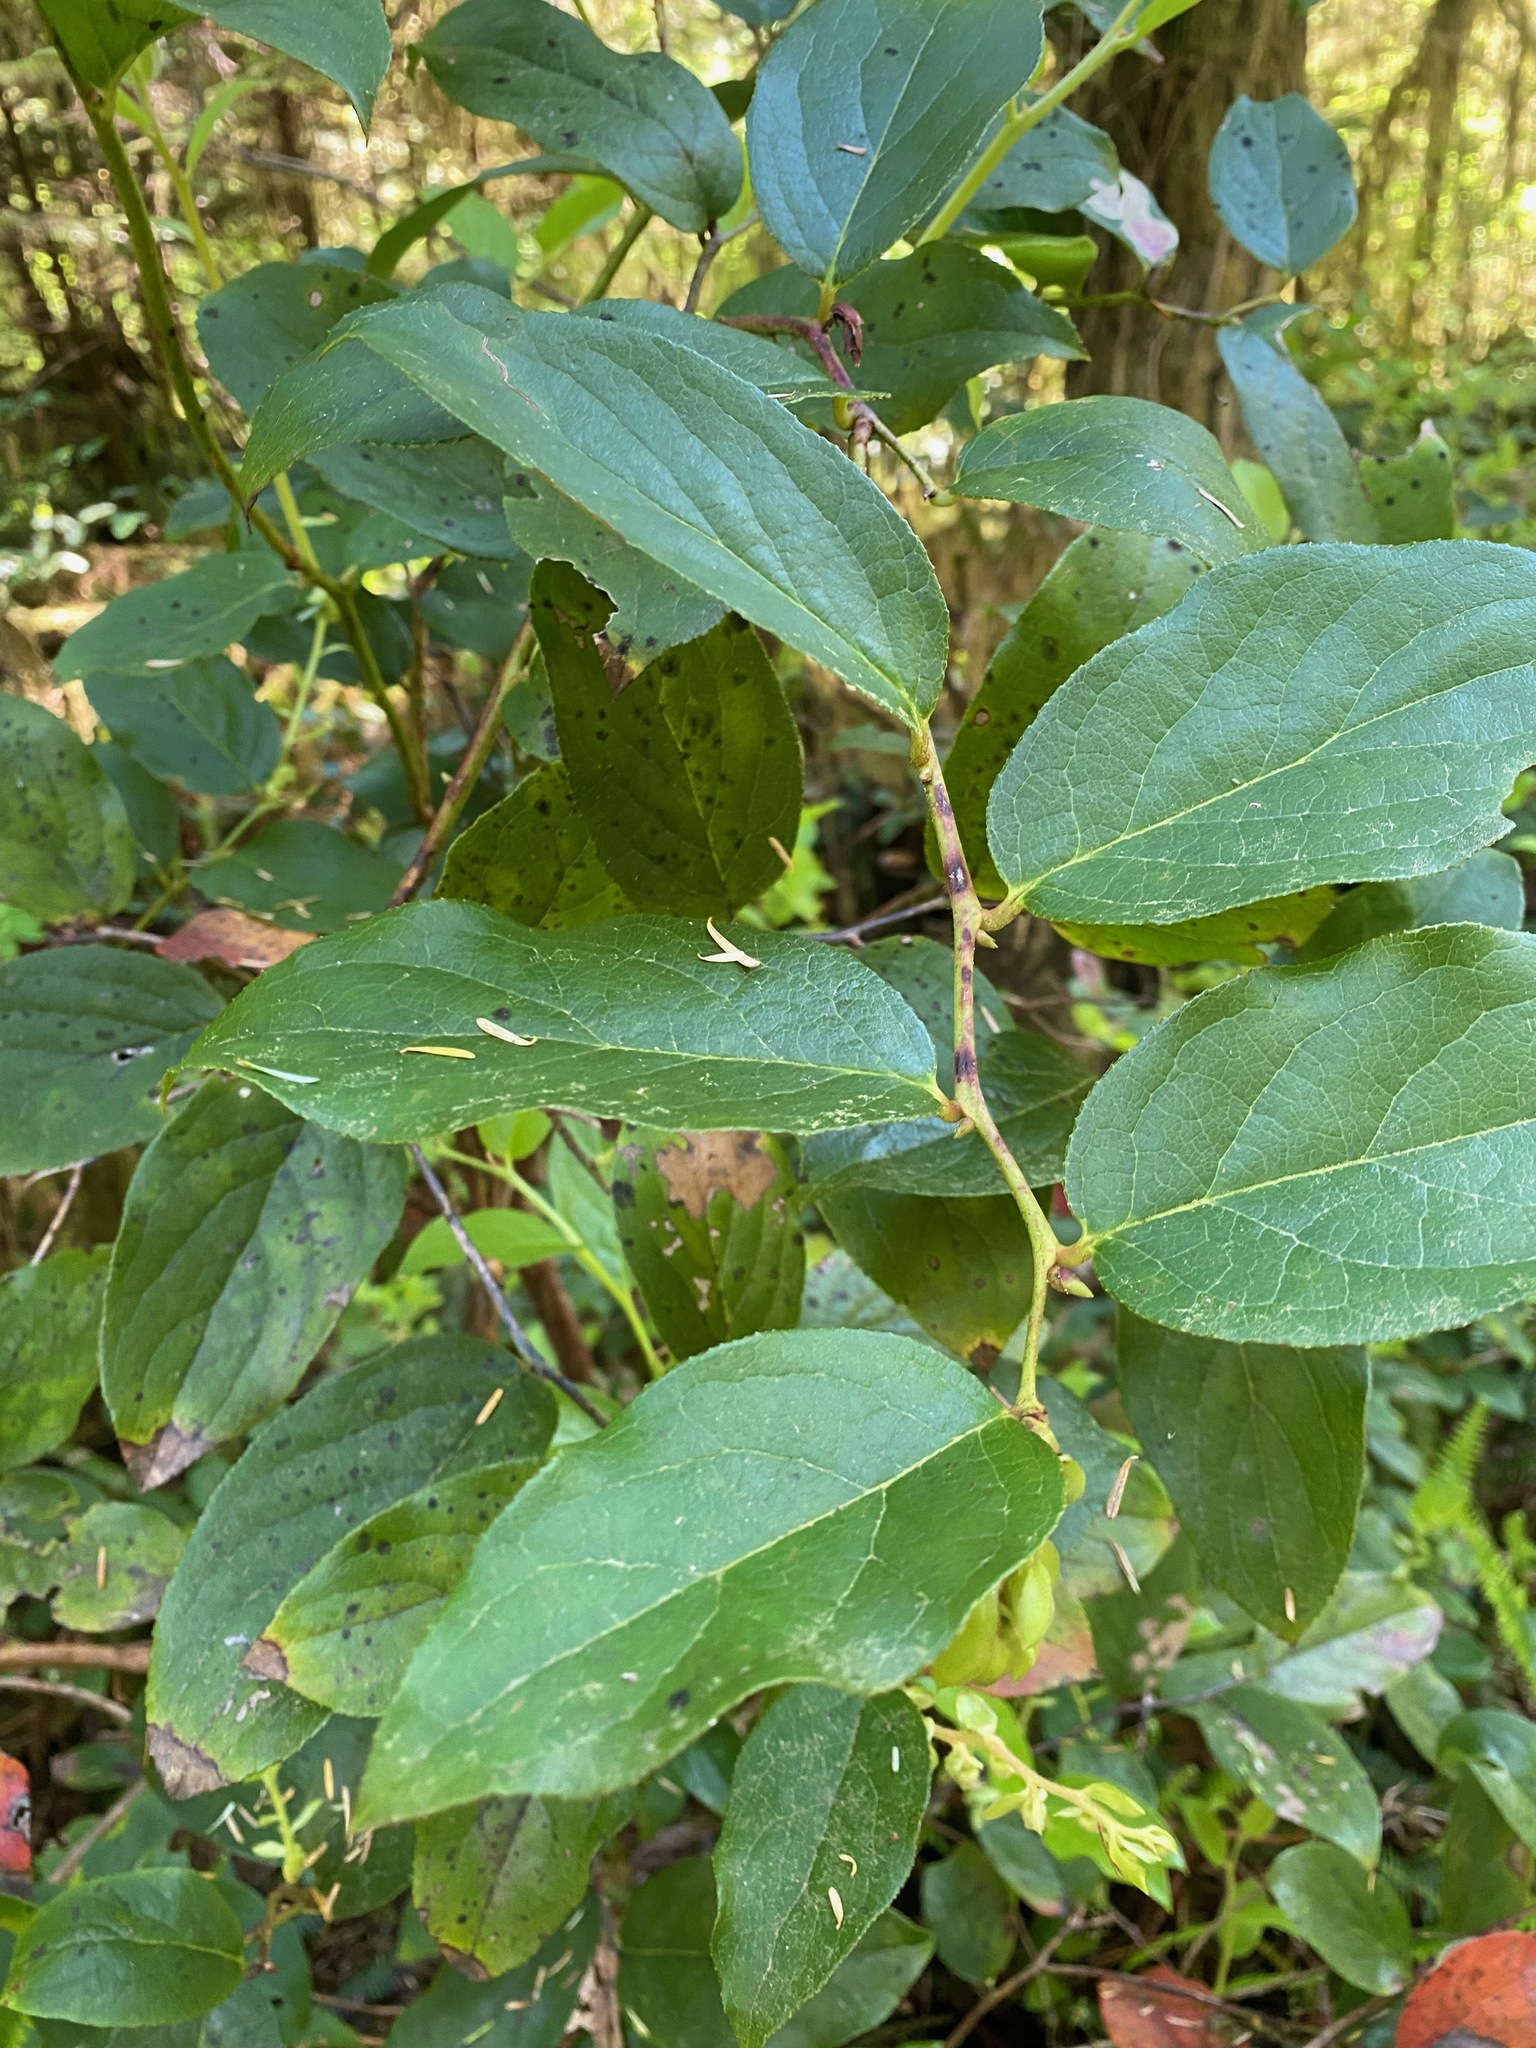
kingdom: Plantae
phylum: Tracheophyta
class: Magnoliopsida
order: Ericales
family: Ericaceae
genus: Gaultheria
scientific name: Gaultheria shallon
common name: Shallon
